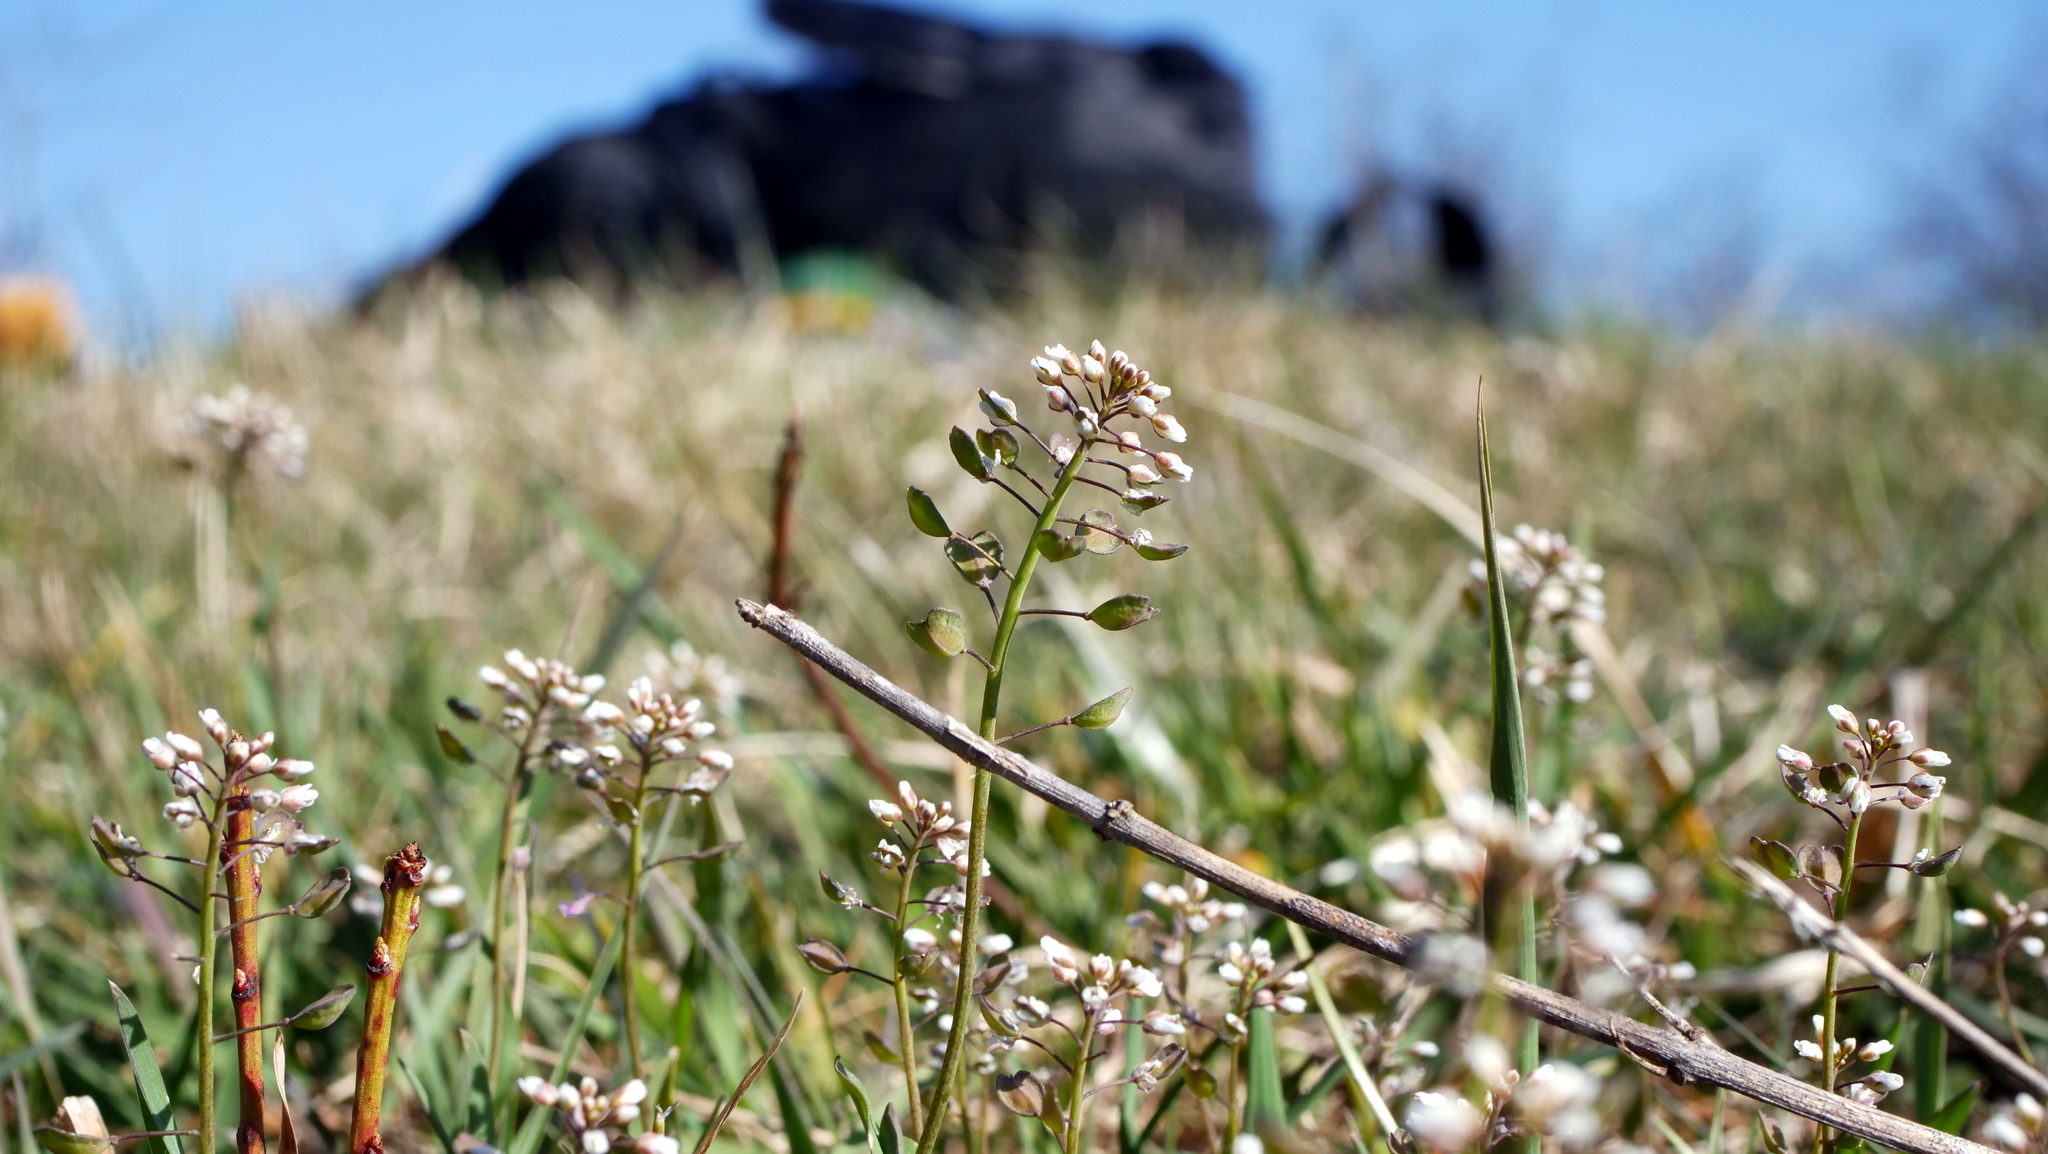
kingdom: Plantae
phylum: Tracheophyta
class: Magnoliopsida
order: Brassicales
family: Brassicaceae
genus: Noccaea
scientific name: Noccaea perfoliata
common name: Perfoliate pennycress
